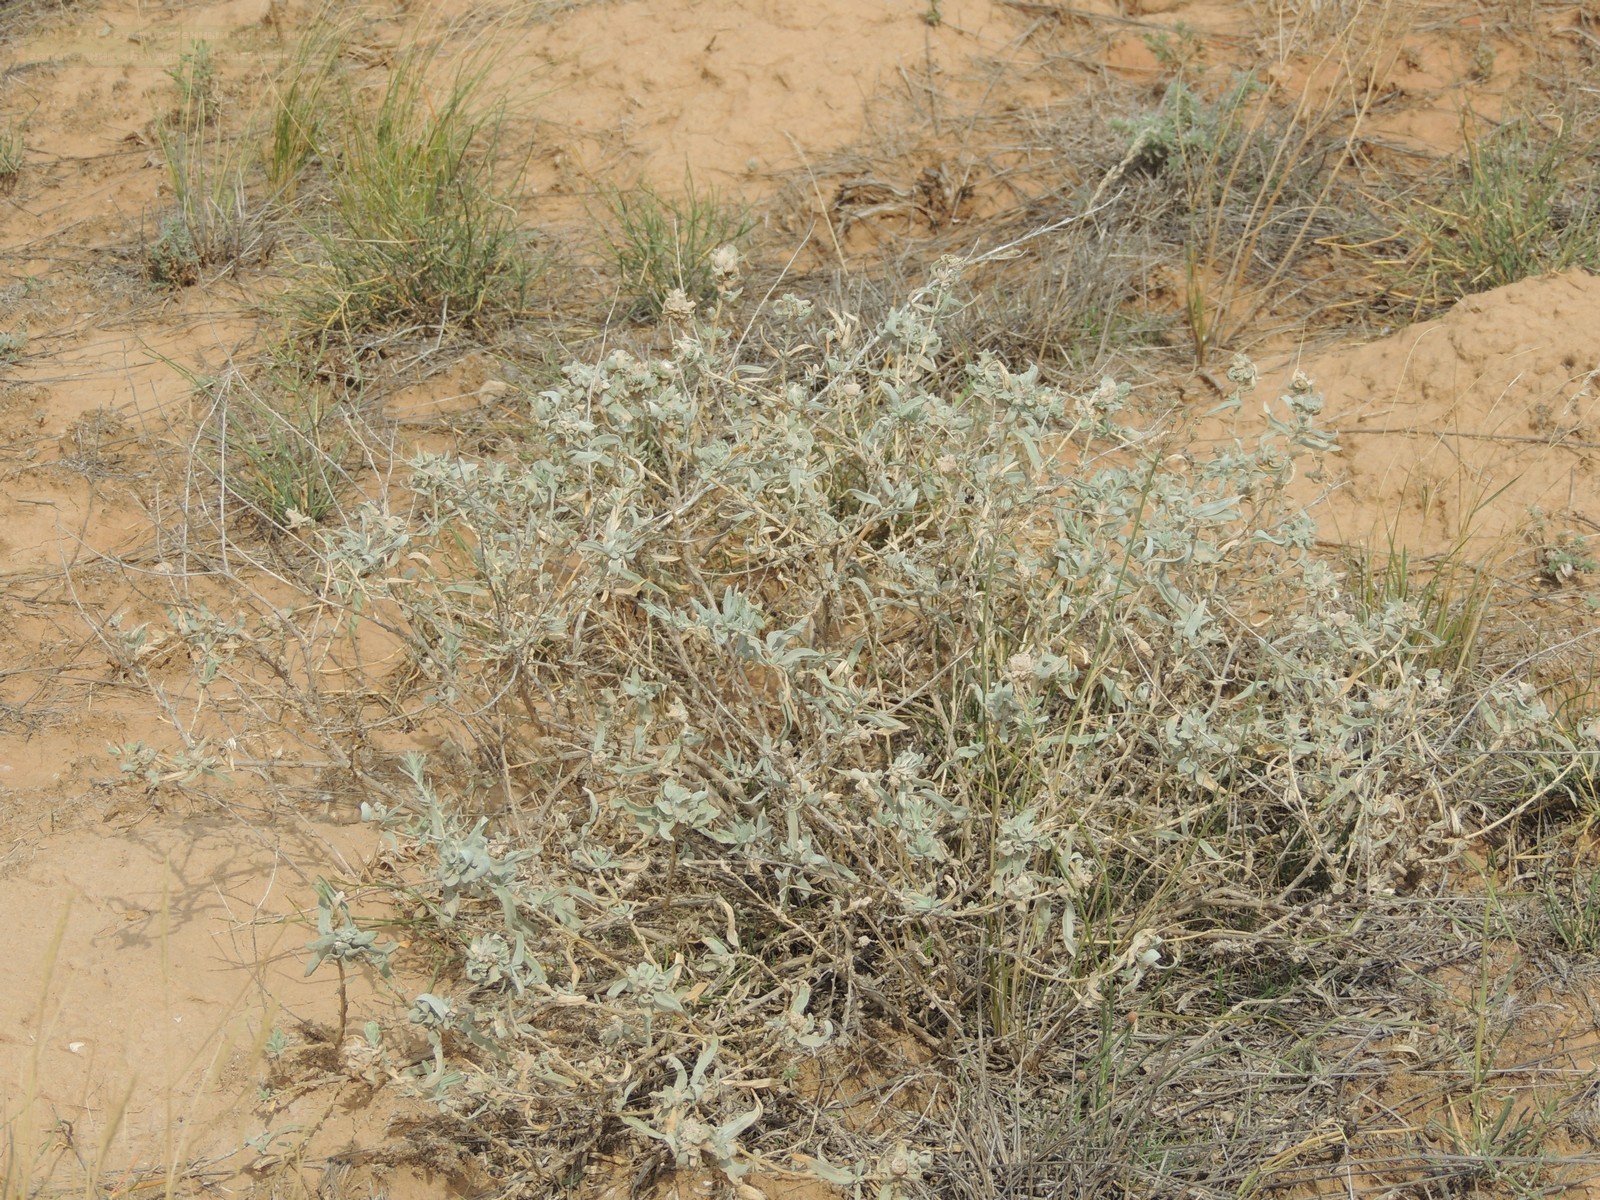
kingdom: Plantae
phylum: Tracheophyta
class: Magnoliopsida
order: Caryophyllales
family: Amaranthaceae
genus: Krascheninnikovia
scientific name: Krascheninnikovia ceratoides
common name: Pamirian winterfat
